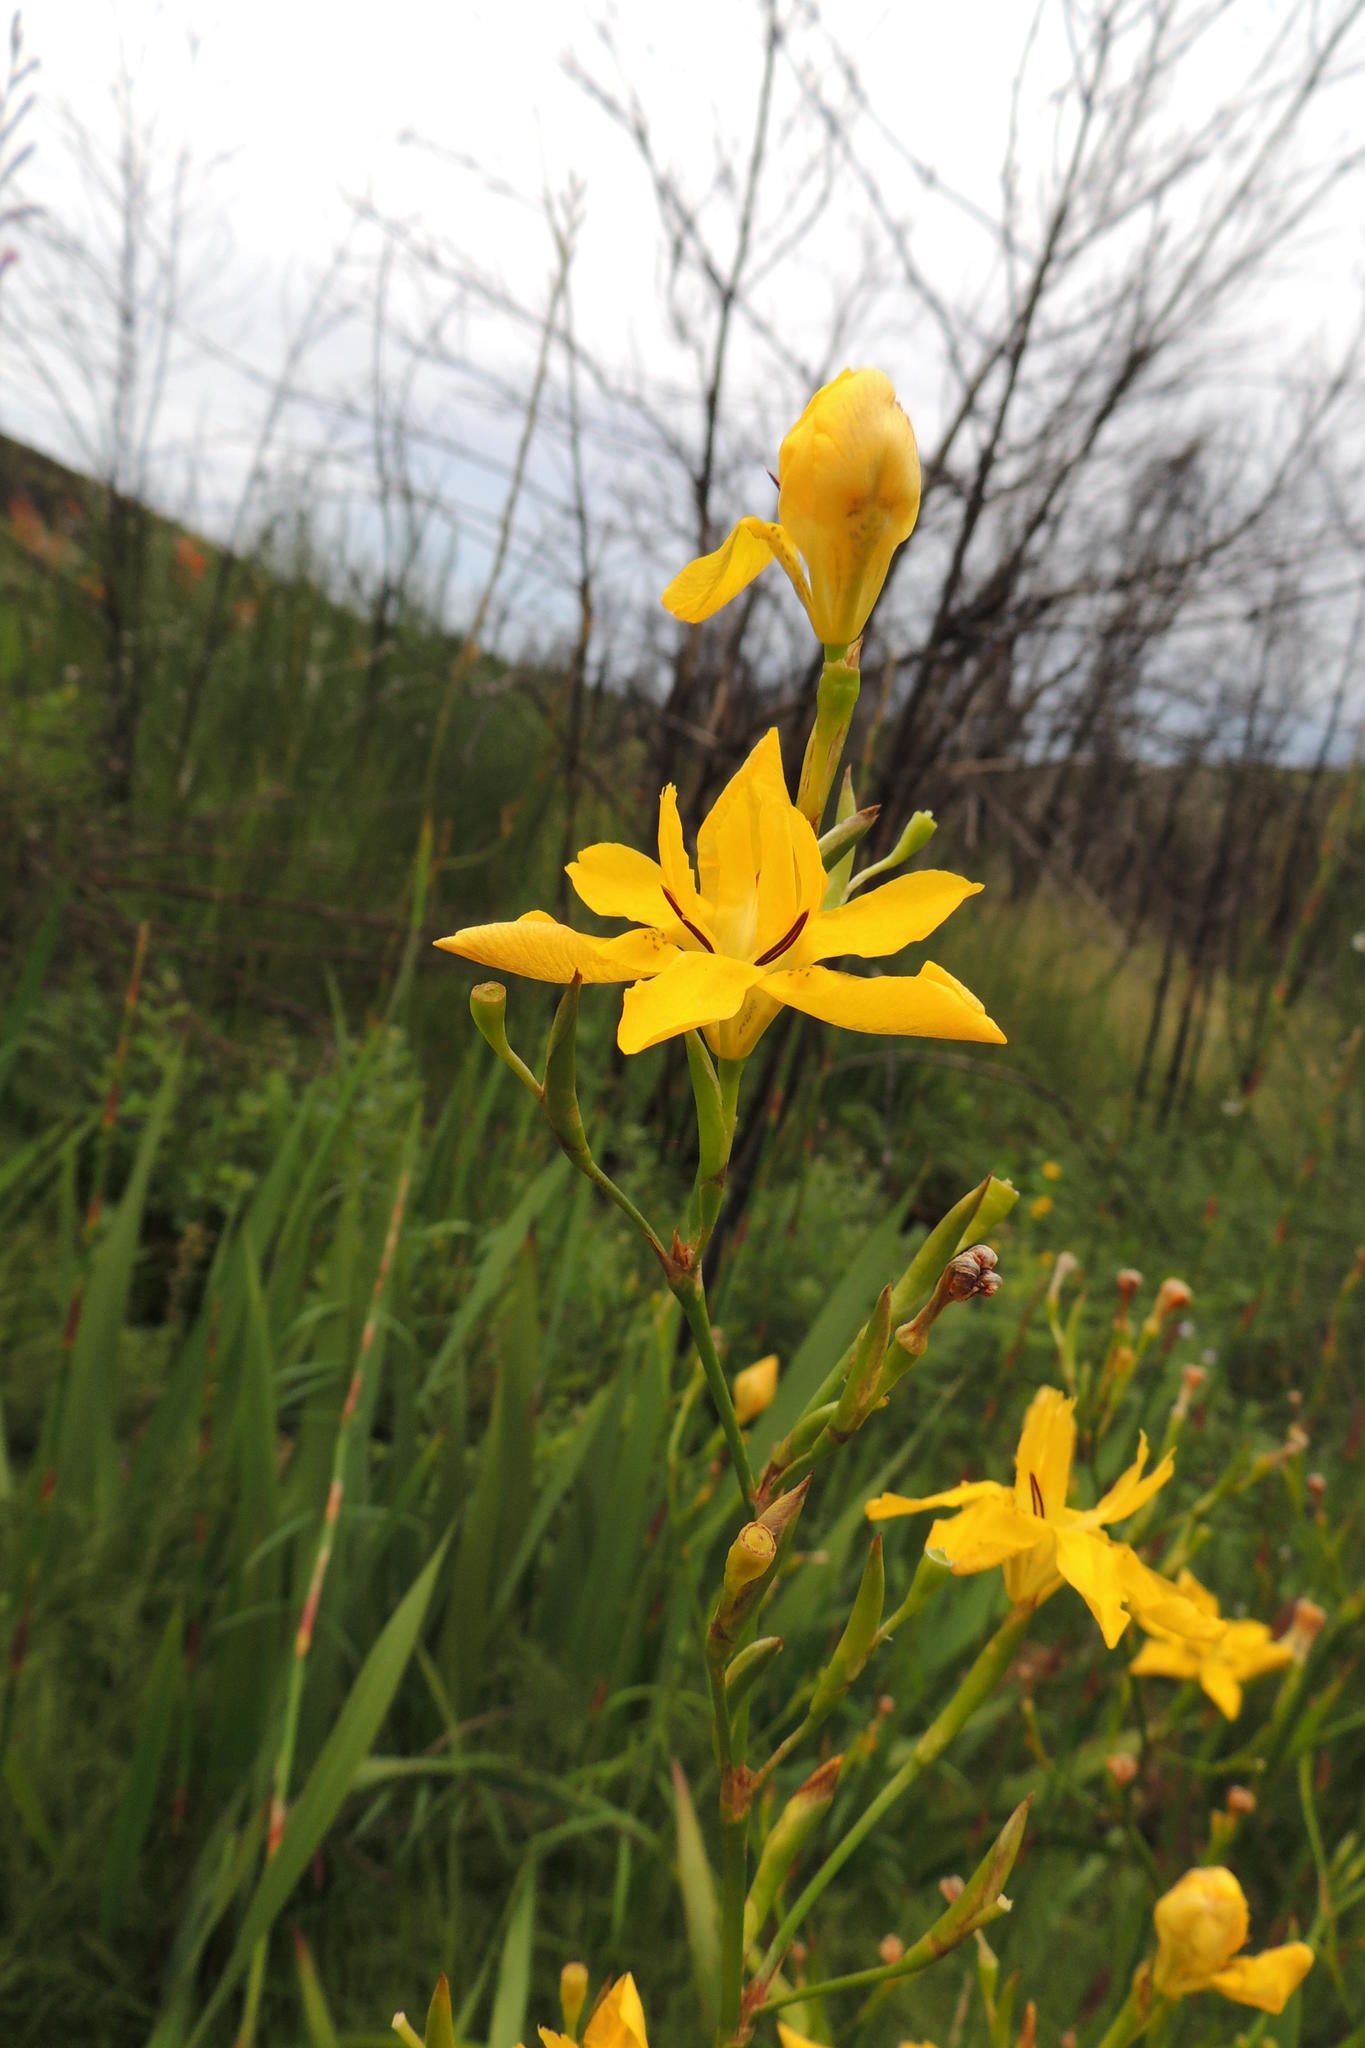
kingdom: Plantae
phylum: Tracheophyta
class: Liliopsida
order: Asparagales
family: Iridaceae
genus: Moraea
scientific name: Moraea ramosissima
